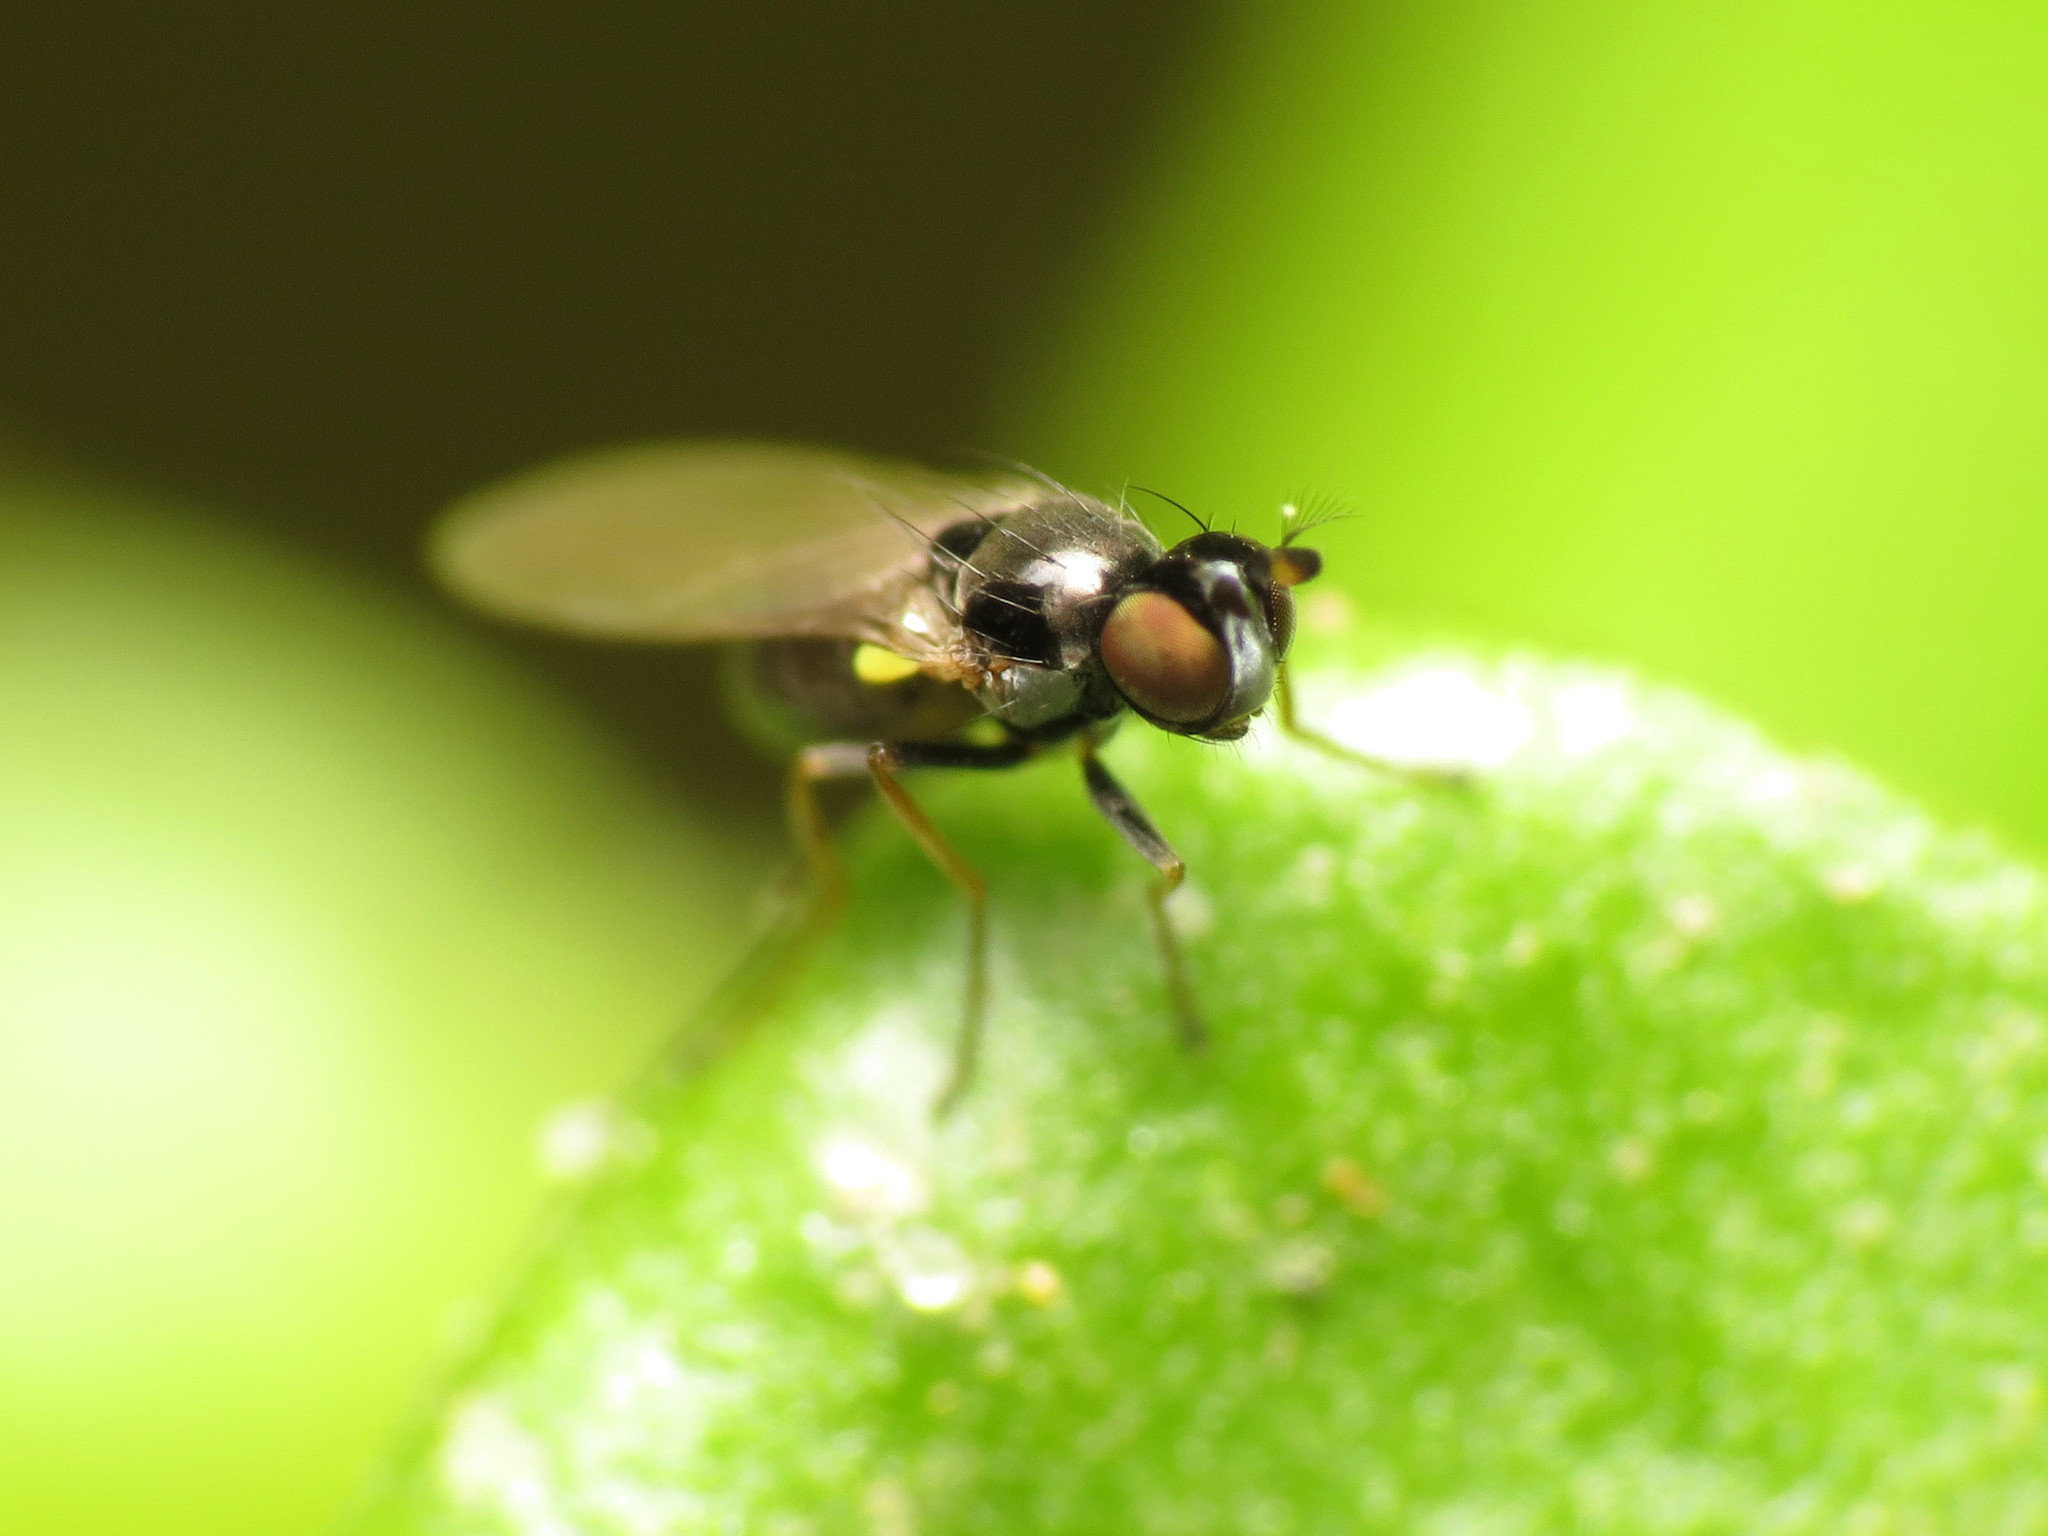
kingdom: Animalia
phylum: Arthropoda
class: Insecta
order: Diptera
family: Ephydridae
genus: Hydrellia
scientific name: Hydrellia formosa
